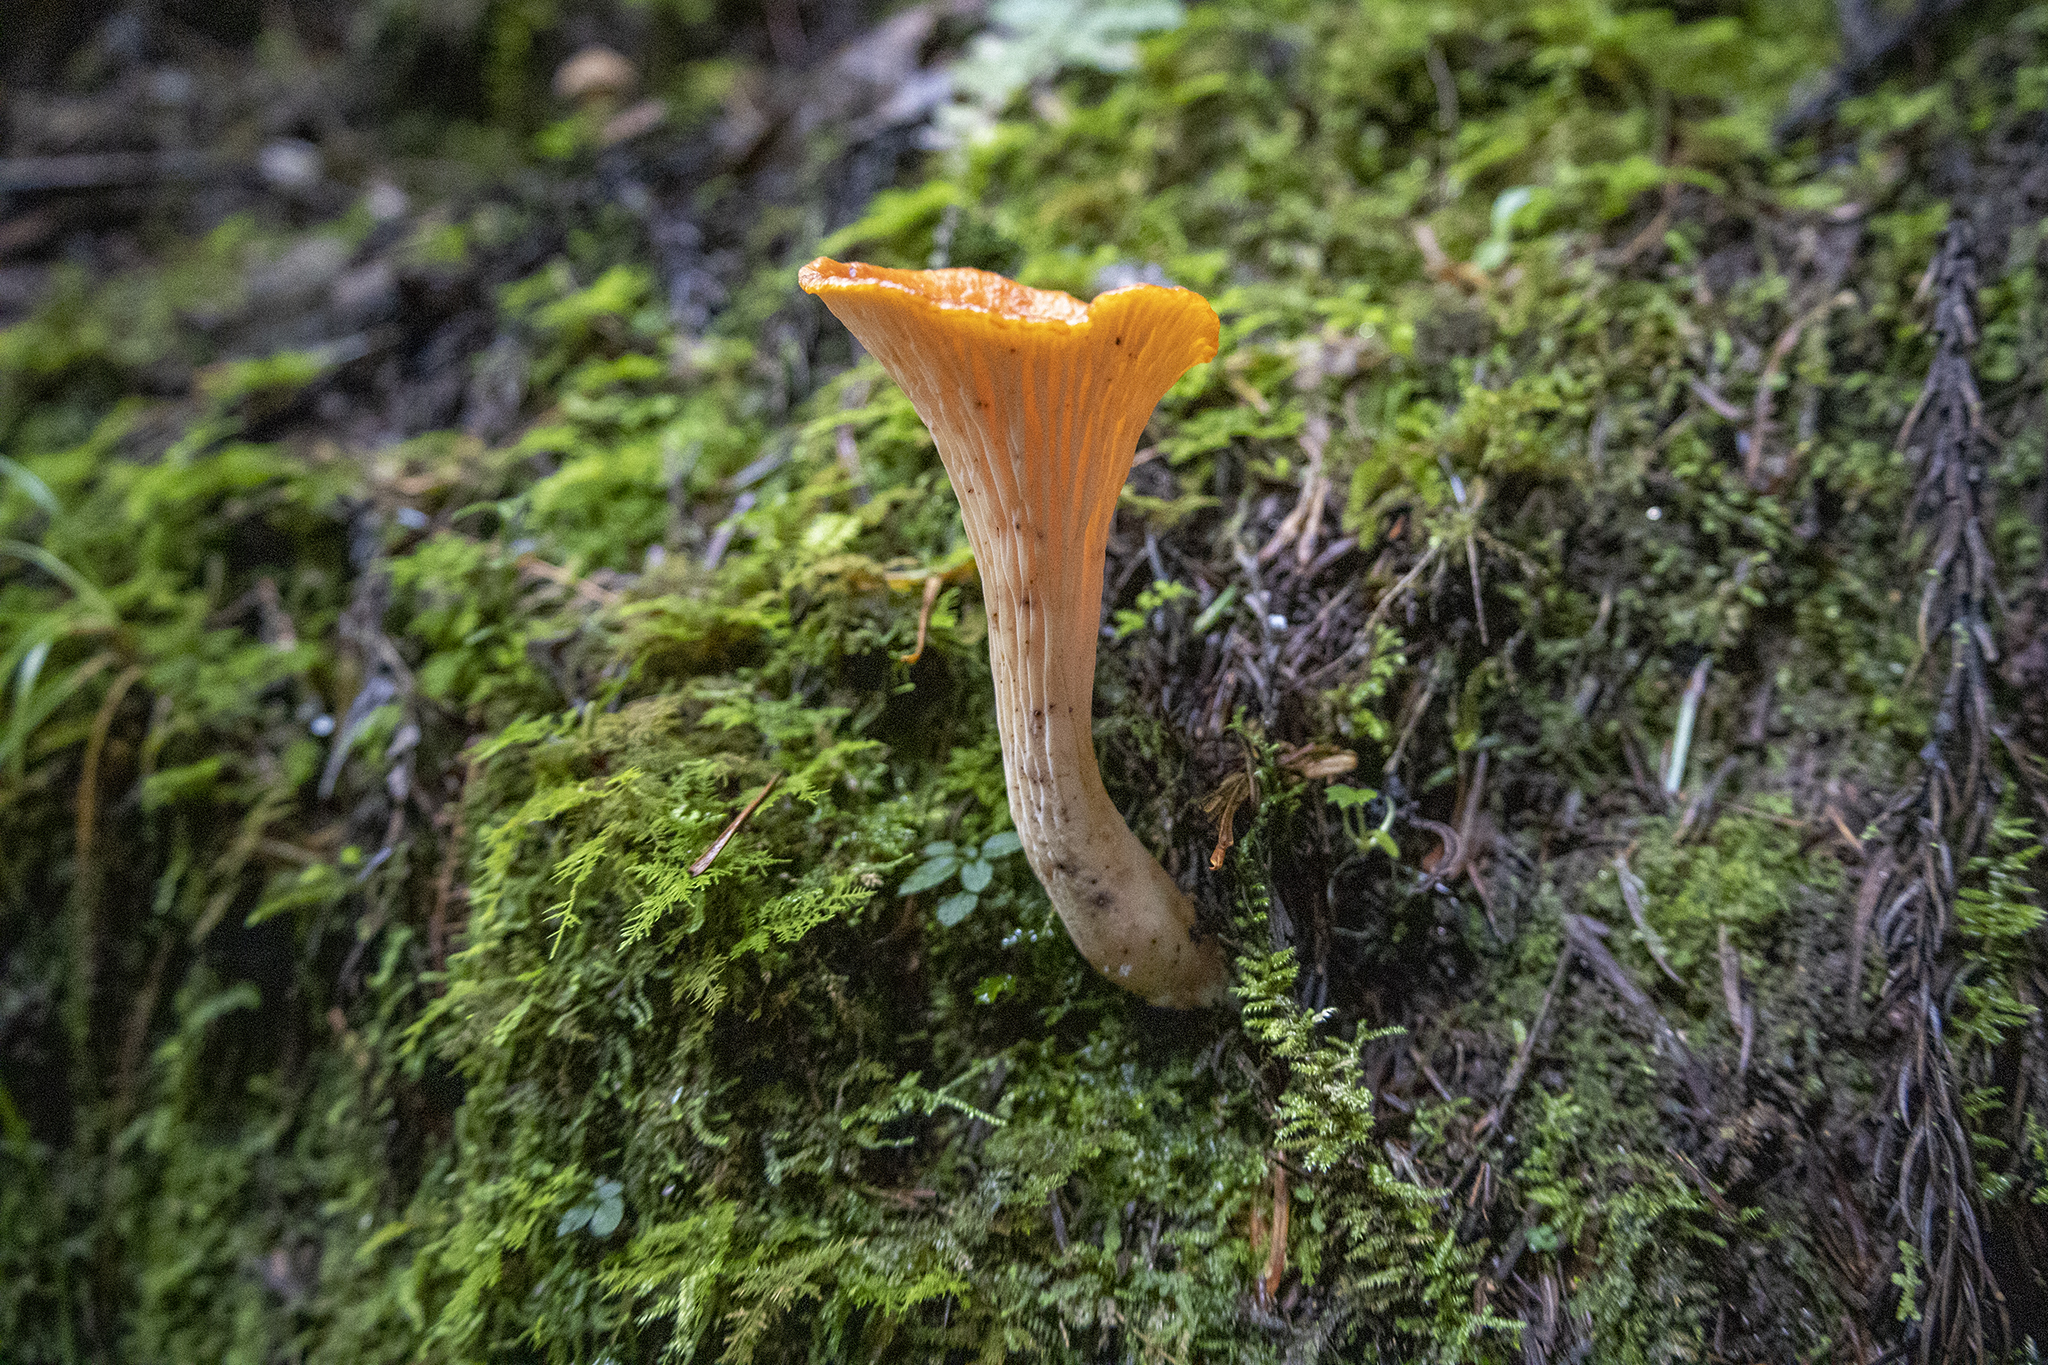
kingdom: Fungi
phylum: Basidiomycota
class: Agaricomycetes
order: Gomphales
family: Gomphaceae
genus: Turbinellus
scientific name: Turbinellus floccosus
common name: Scaly chanterelle
